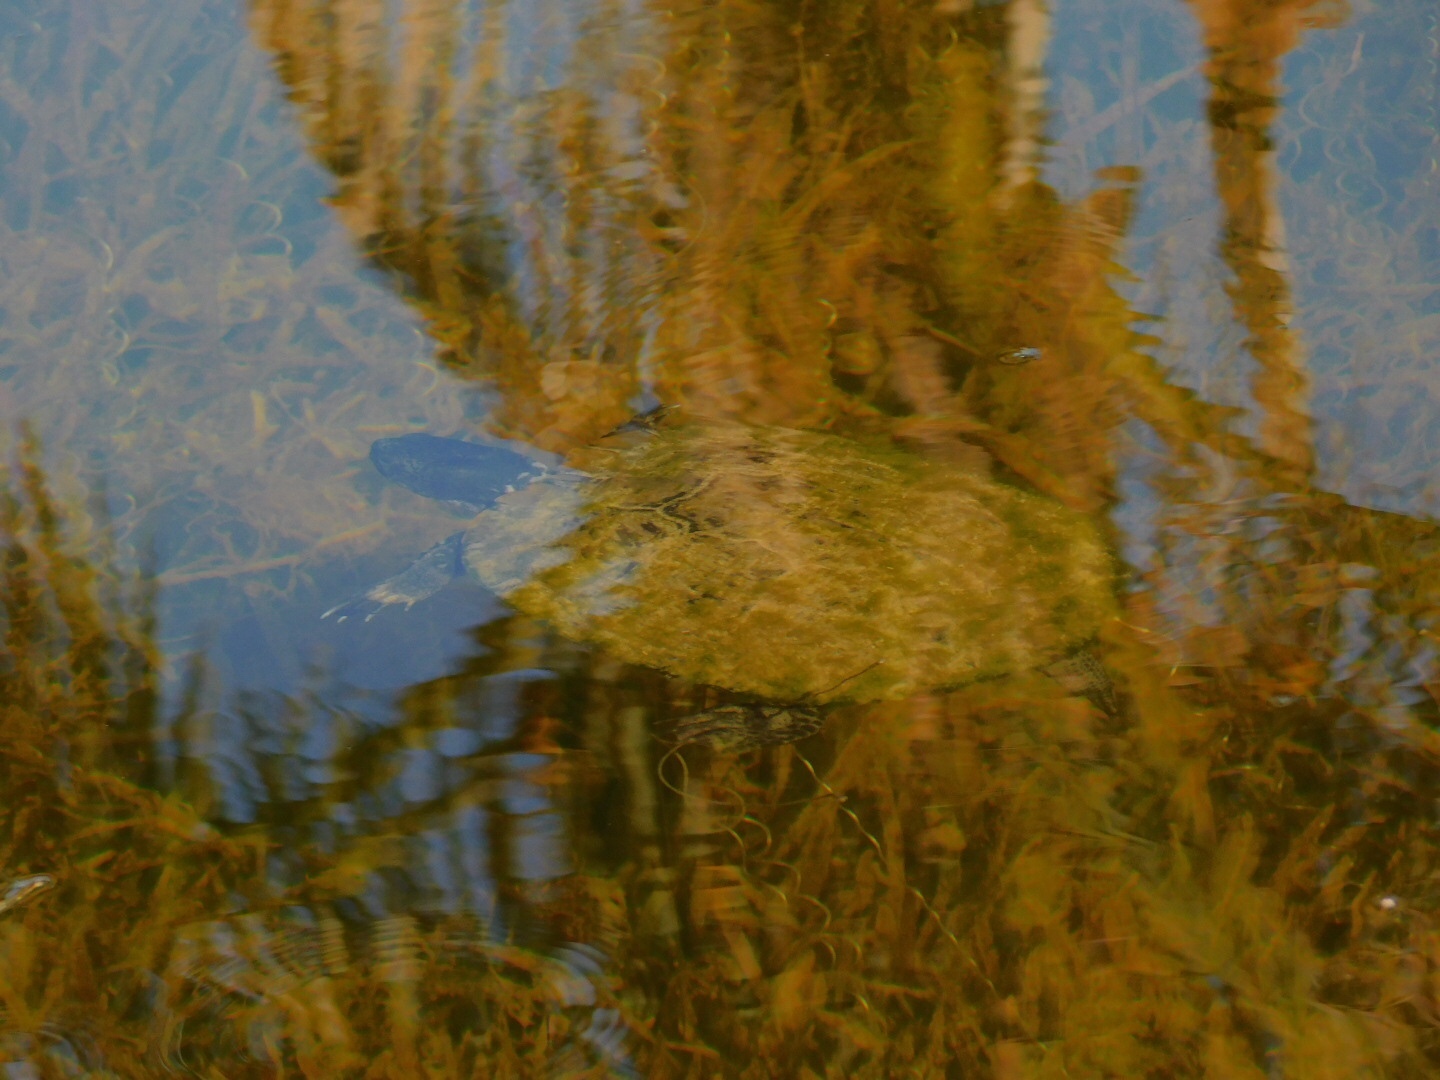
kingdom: Animalia
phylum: Chordata
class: Testudines
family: Emydidae
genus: Trachemys
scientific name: Trachemys scripta
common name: Slider
